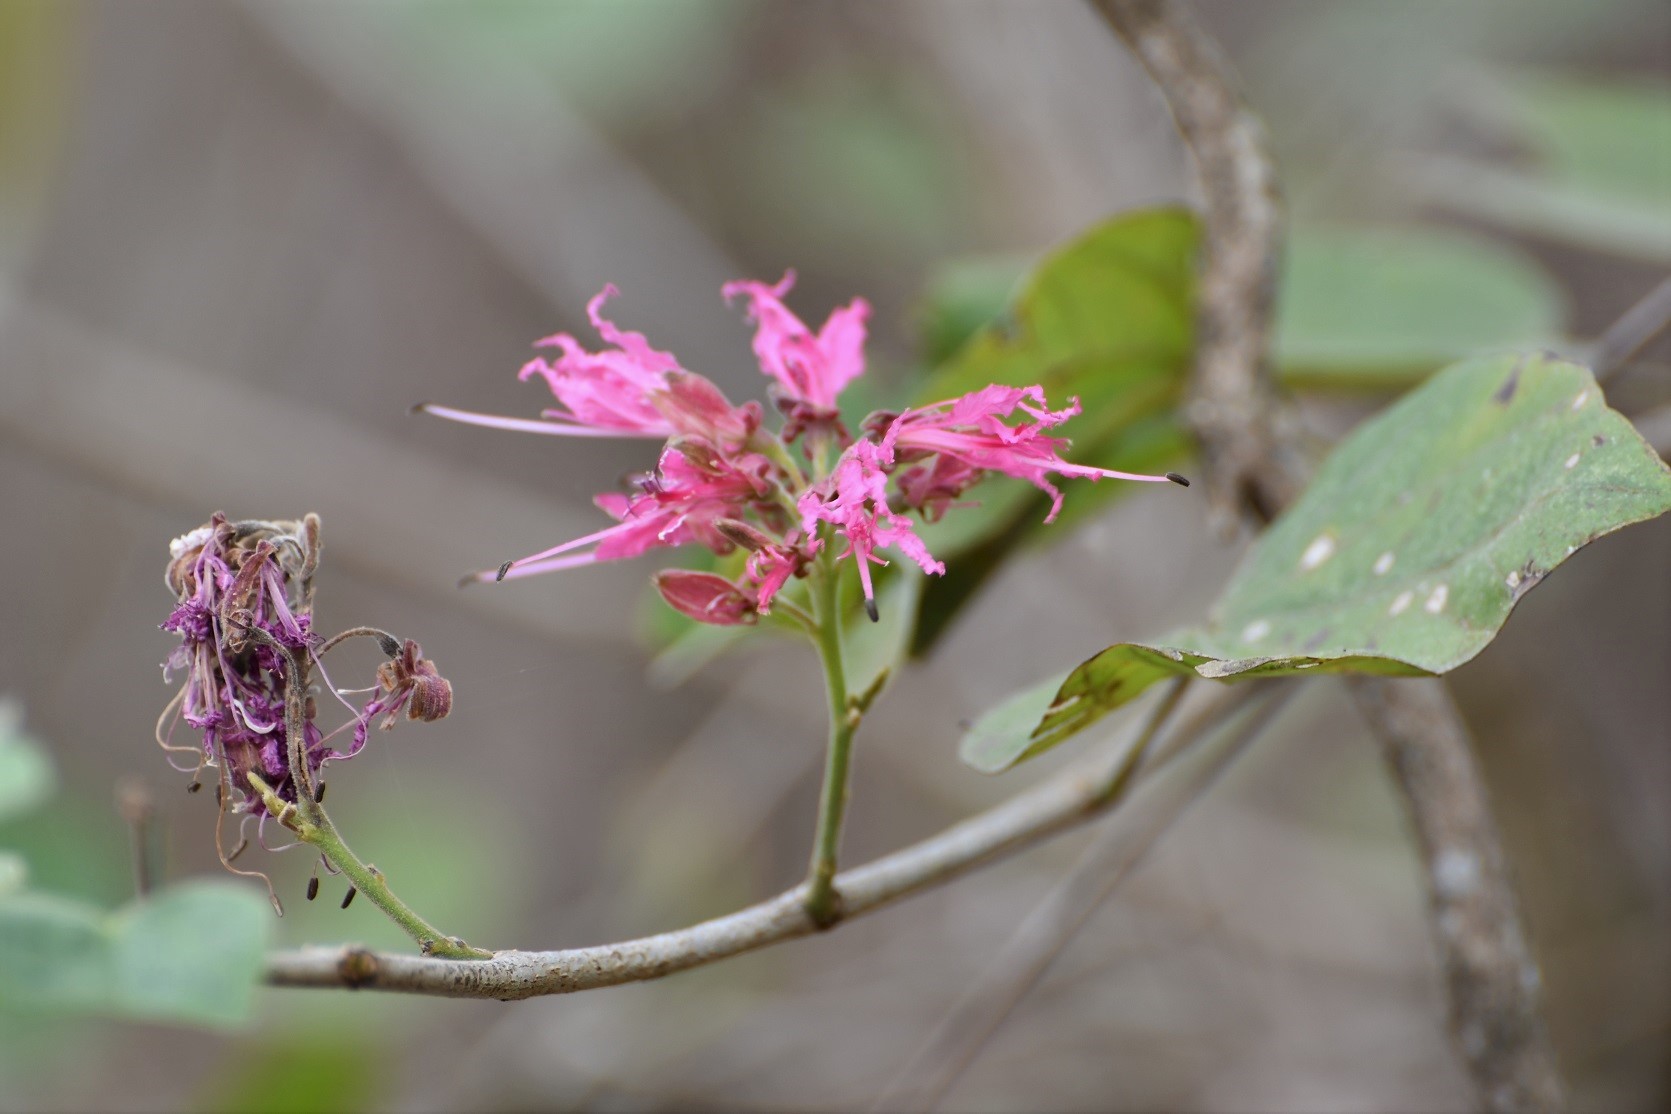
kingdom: Plantae
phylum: Tracheophyta
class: Magnoliopsida
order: Fabales
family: Fabaceae
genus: Bauhinia
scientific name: Bauhinia divaricata
